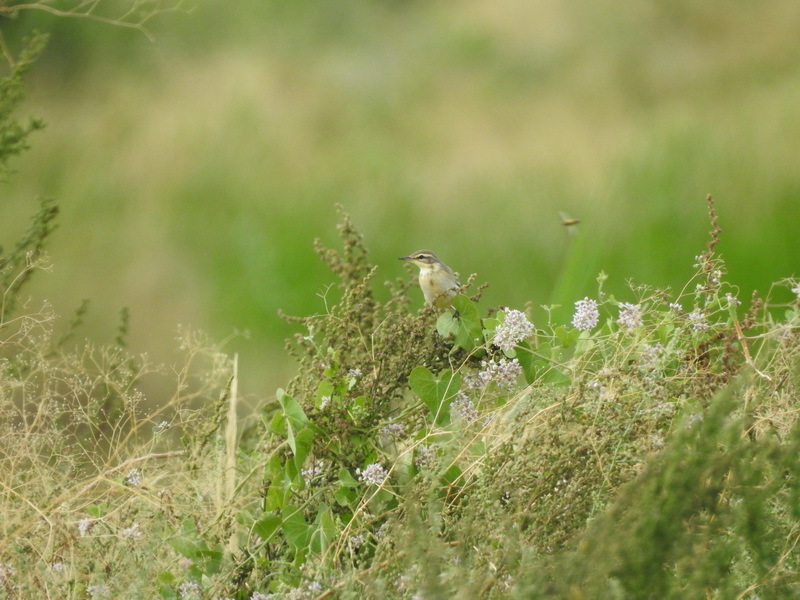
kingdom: Animalia
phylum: Chordata
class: Aves
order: Passeriformes
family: Motacillidae
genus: Motacilla
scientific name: Motacilla flava
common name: Western yellow wagtail
